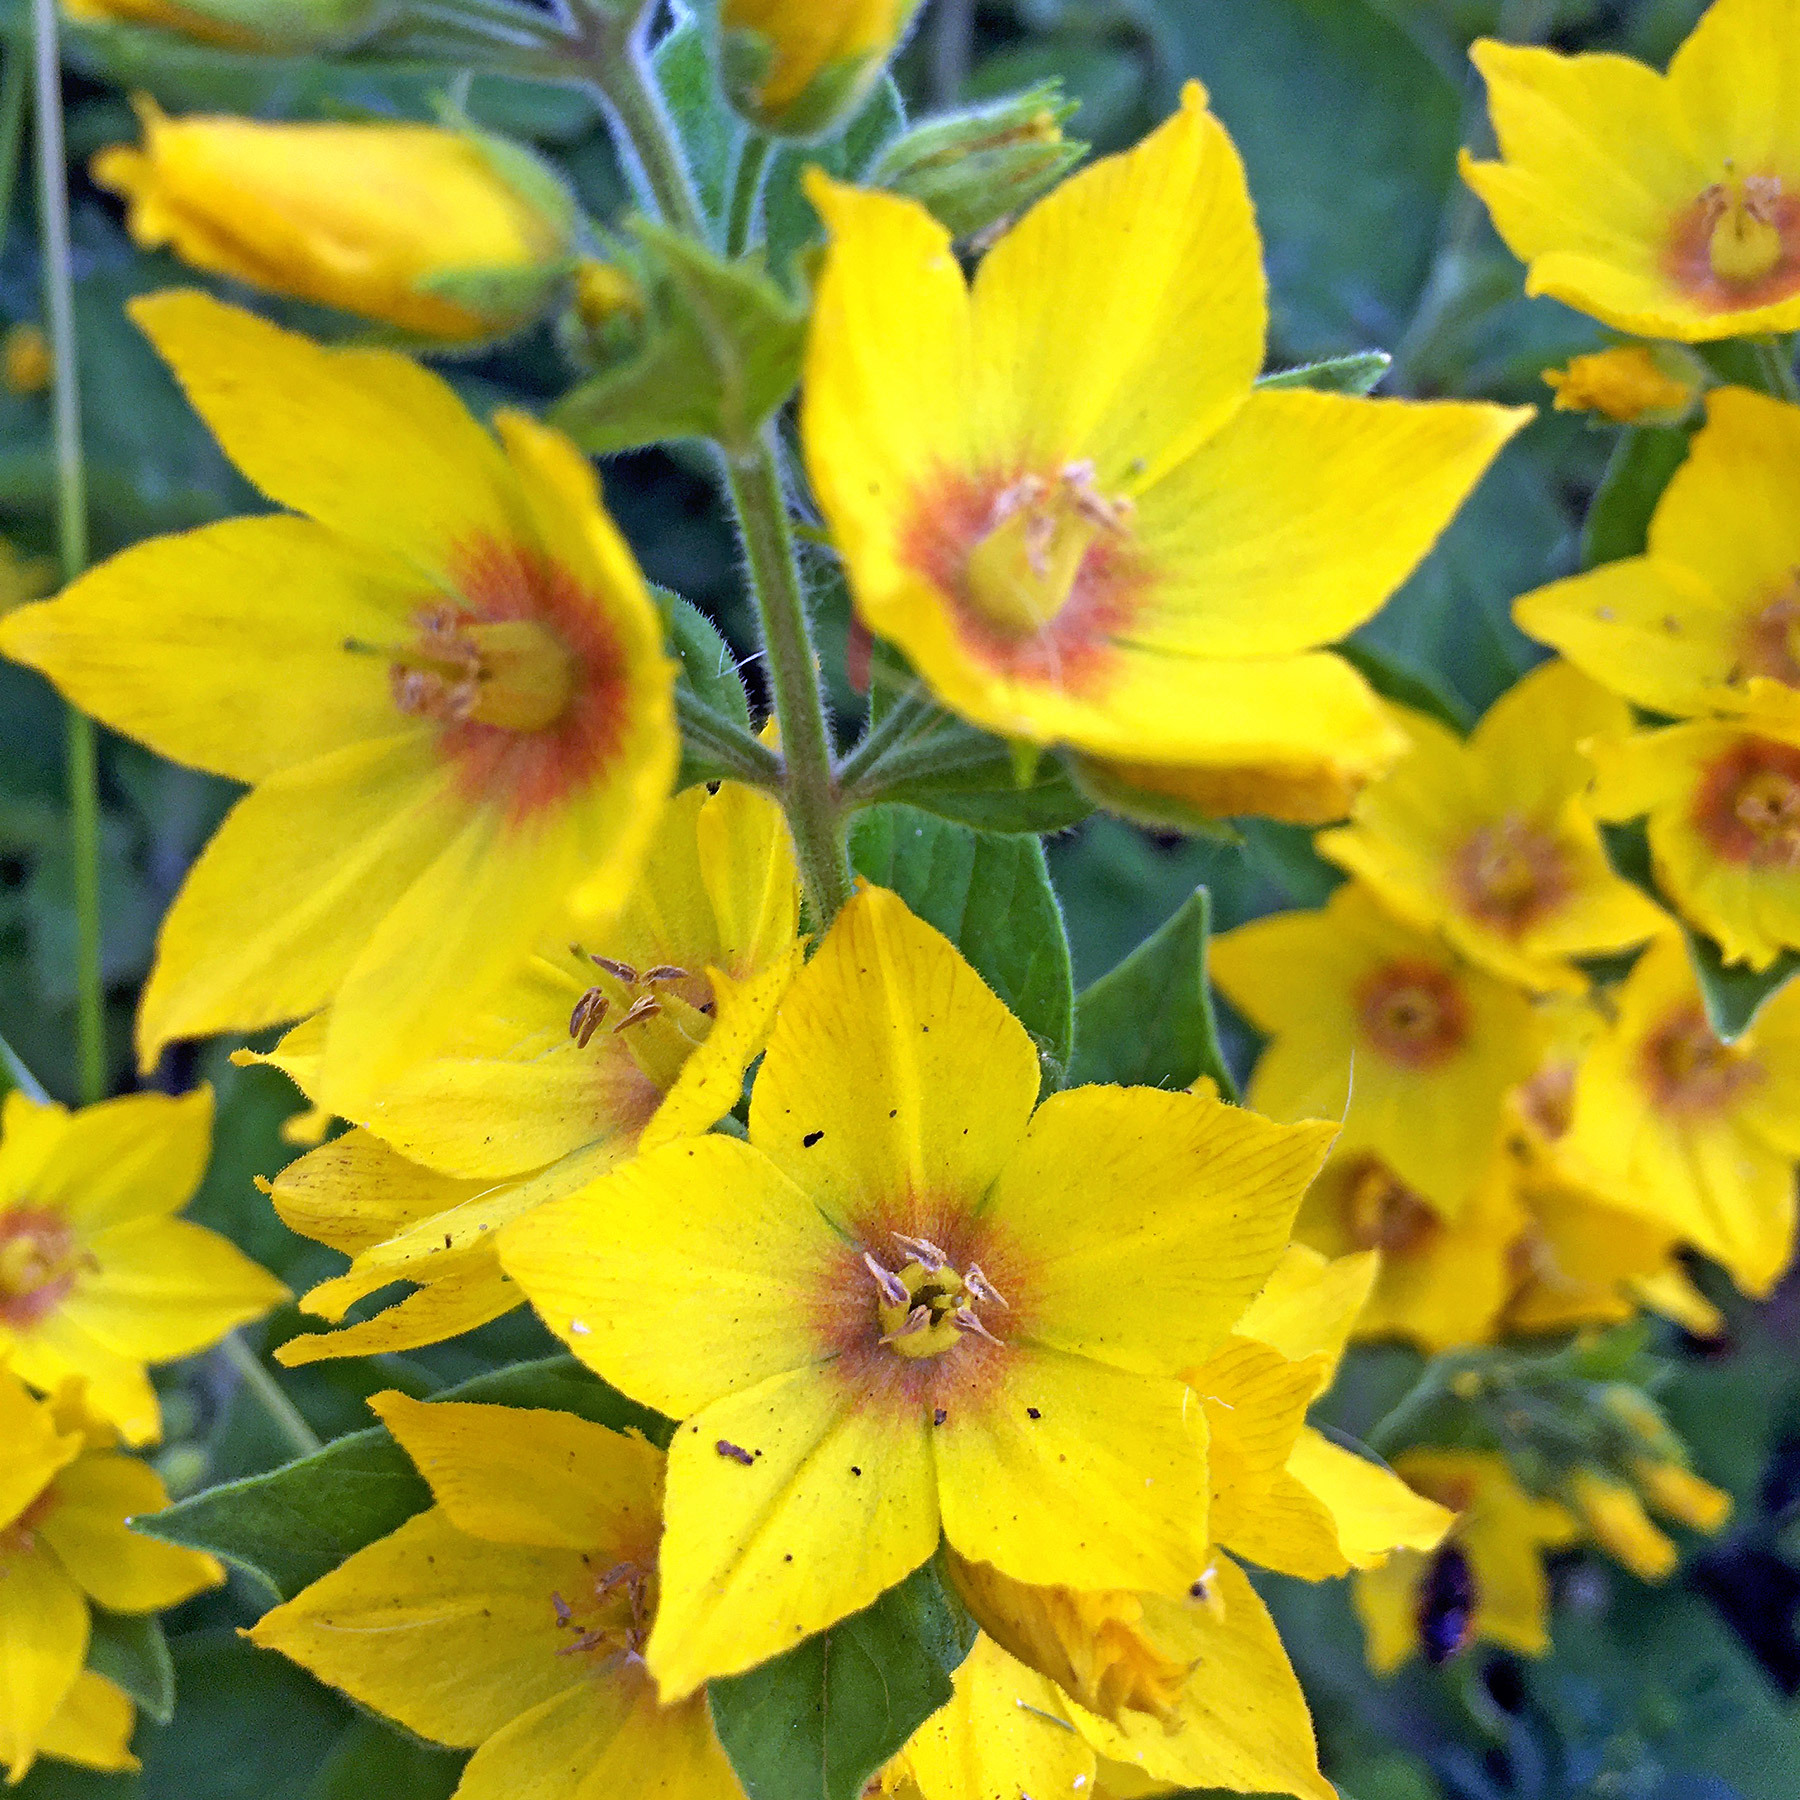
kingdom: Plantae
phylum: Tracheophyta
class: Magnoliopsida
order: Ericales
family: Primulaceae
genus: Lysimachia
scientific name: Lysimachia punctata
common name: Dotted loosestrife
